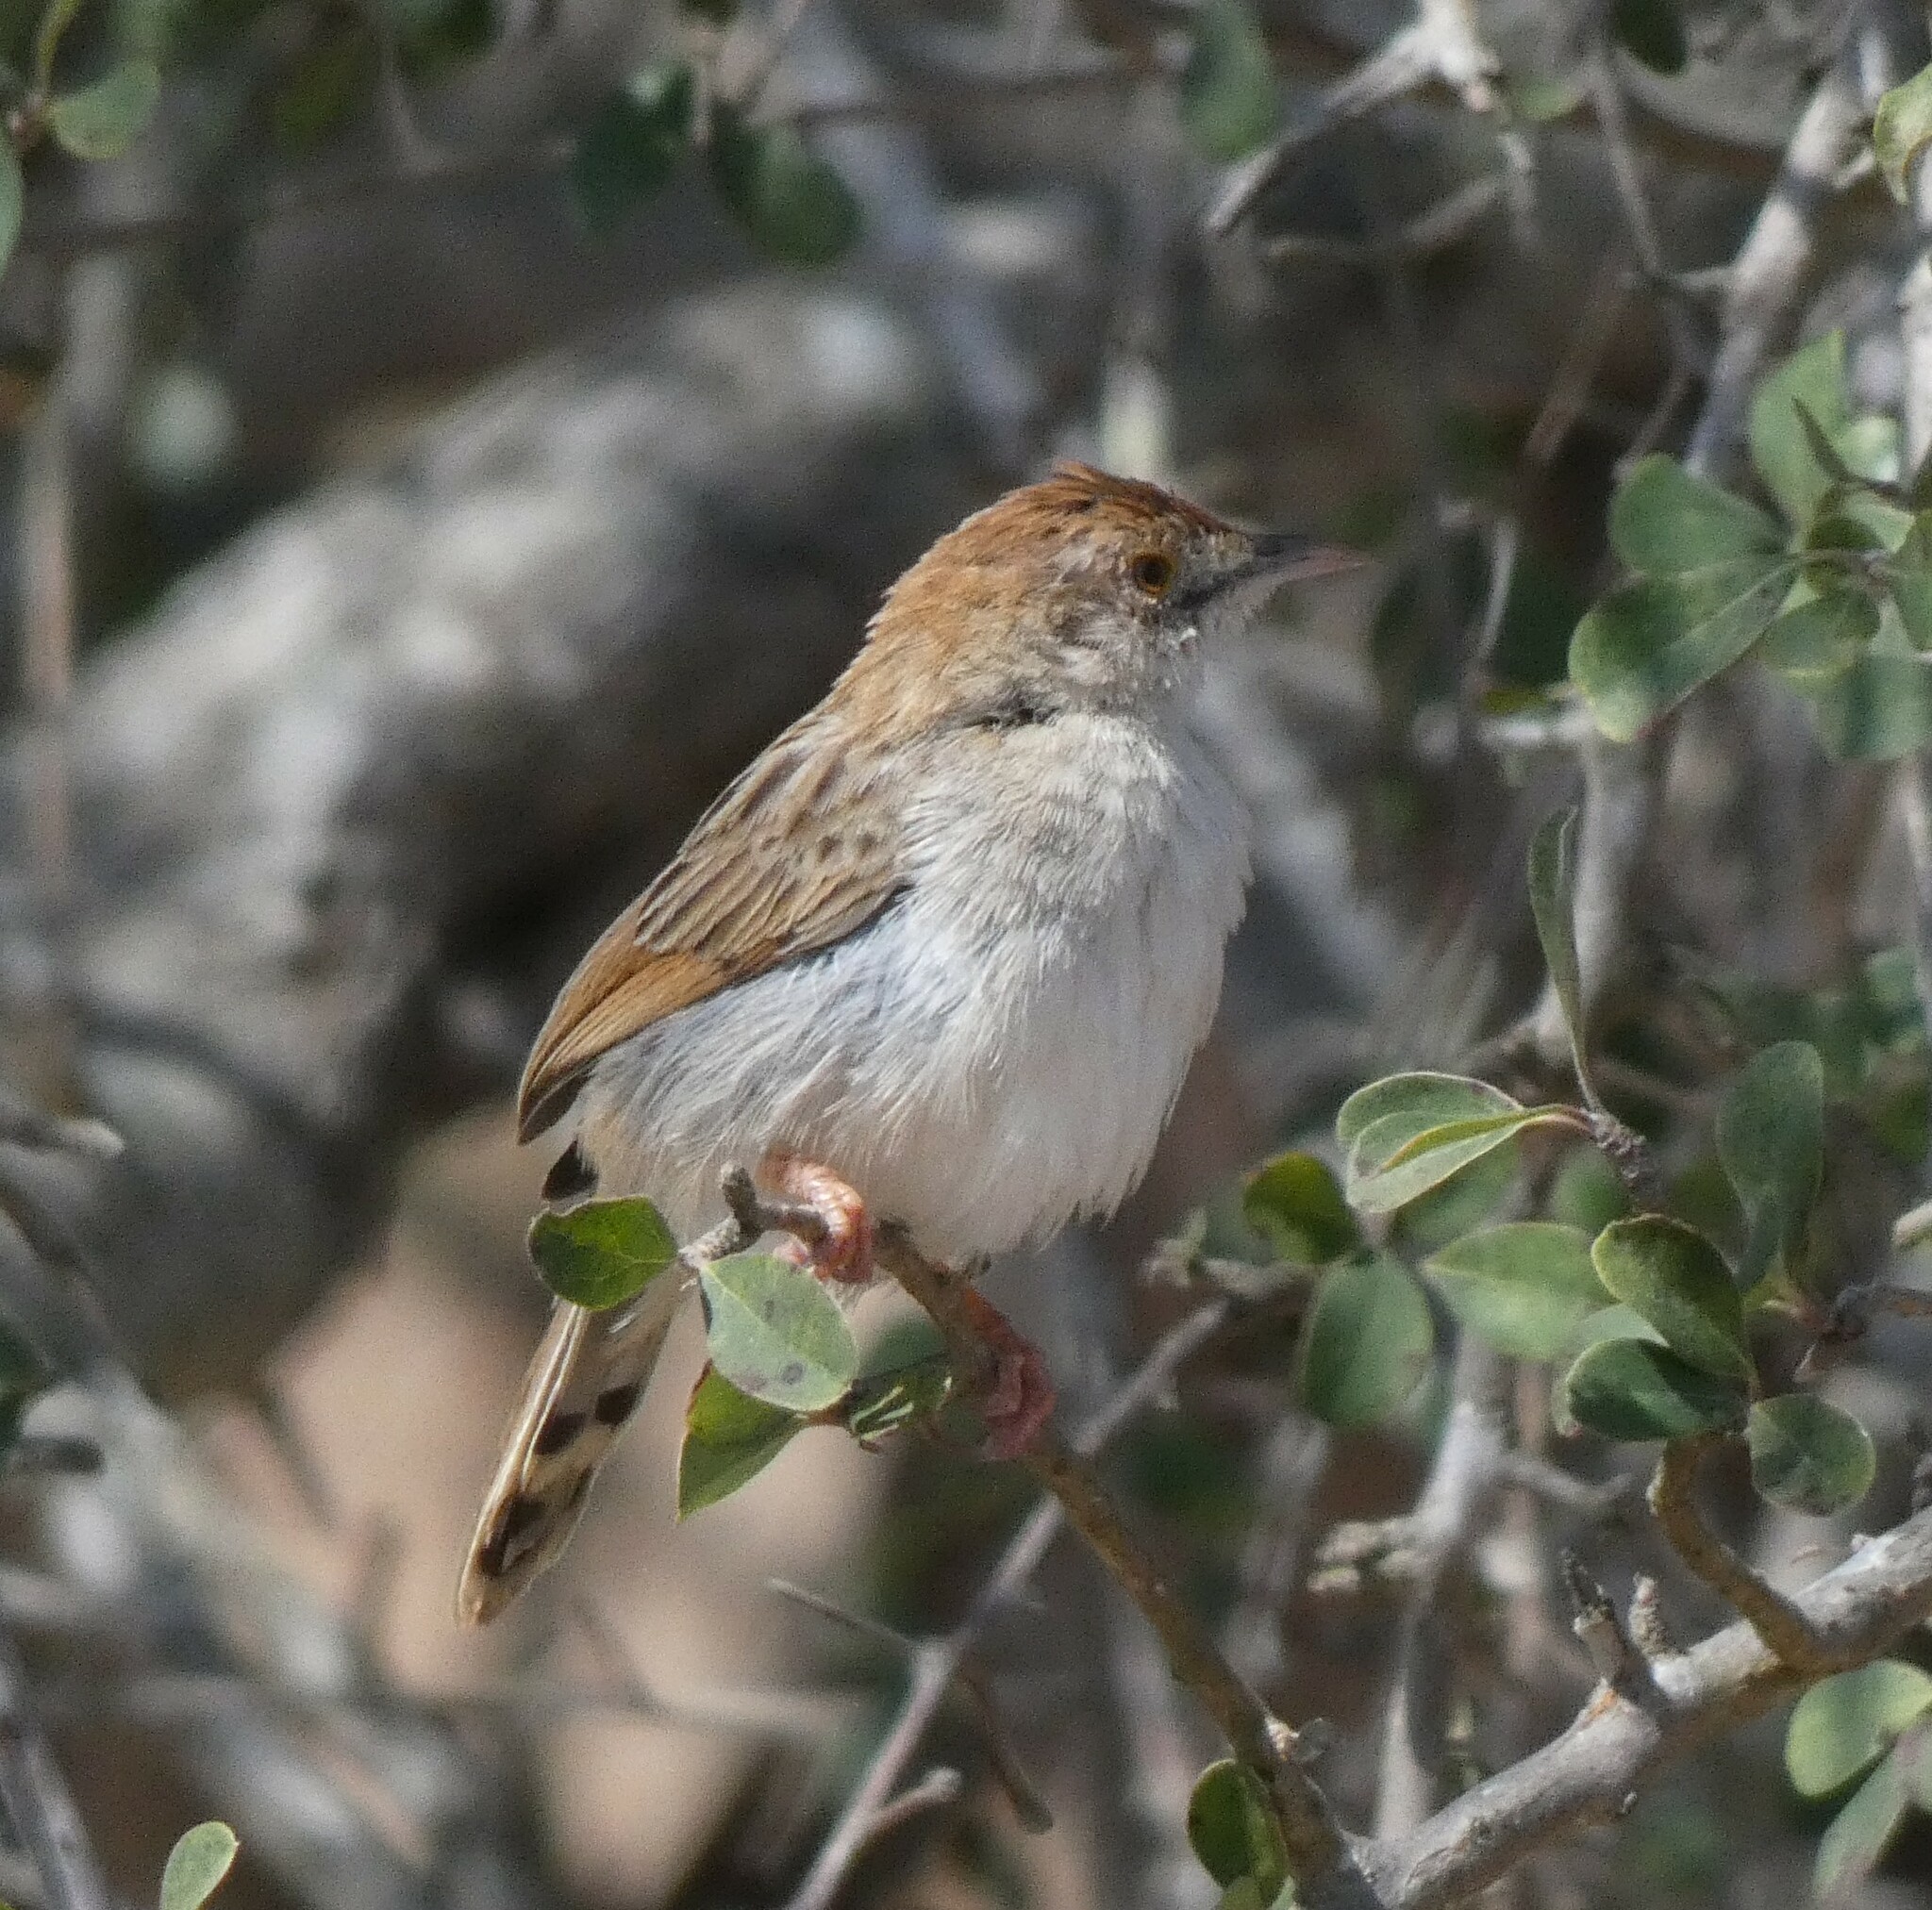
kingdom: Animalia
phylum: Chordata
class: Aves
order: Passeriformes
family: Cisticolidae
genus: Cisticola
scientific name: Cisticola chiniana
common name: Rattling cisticola
